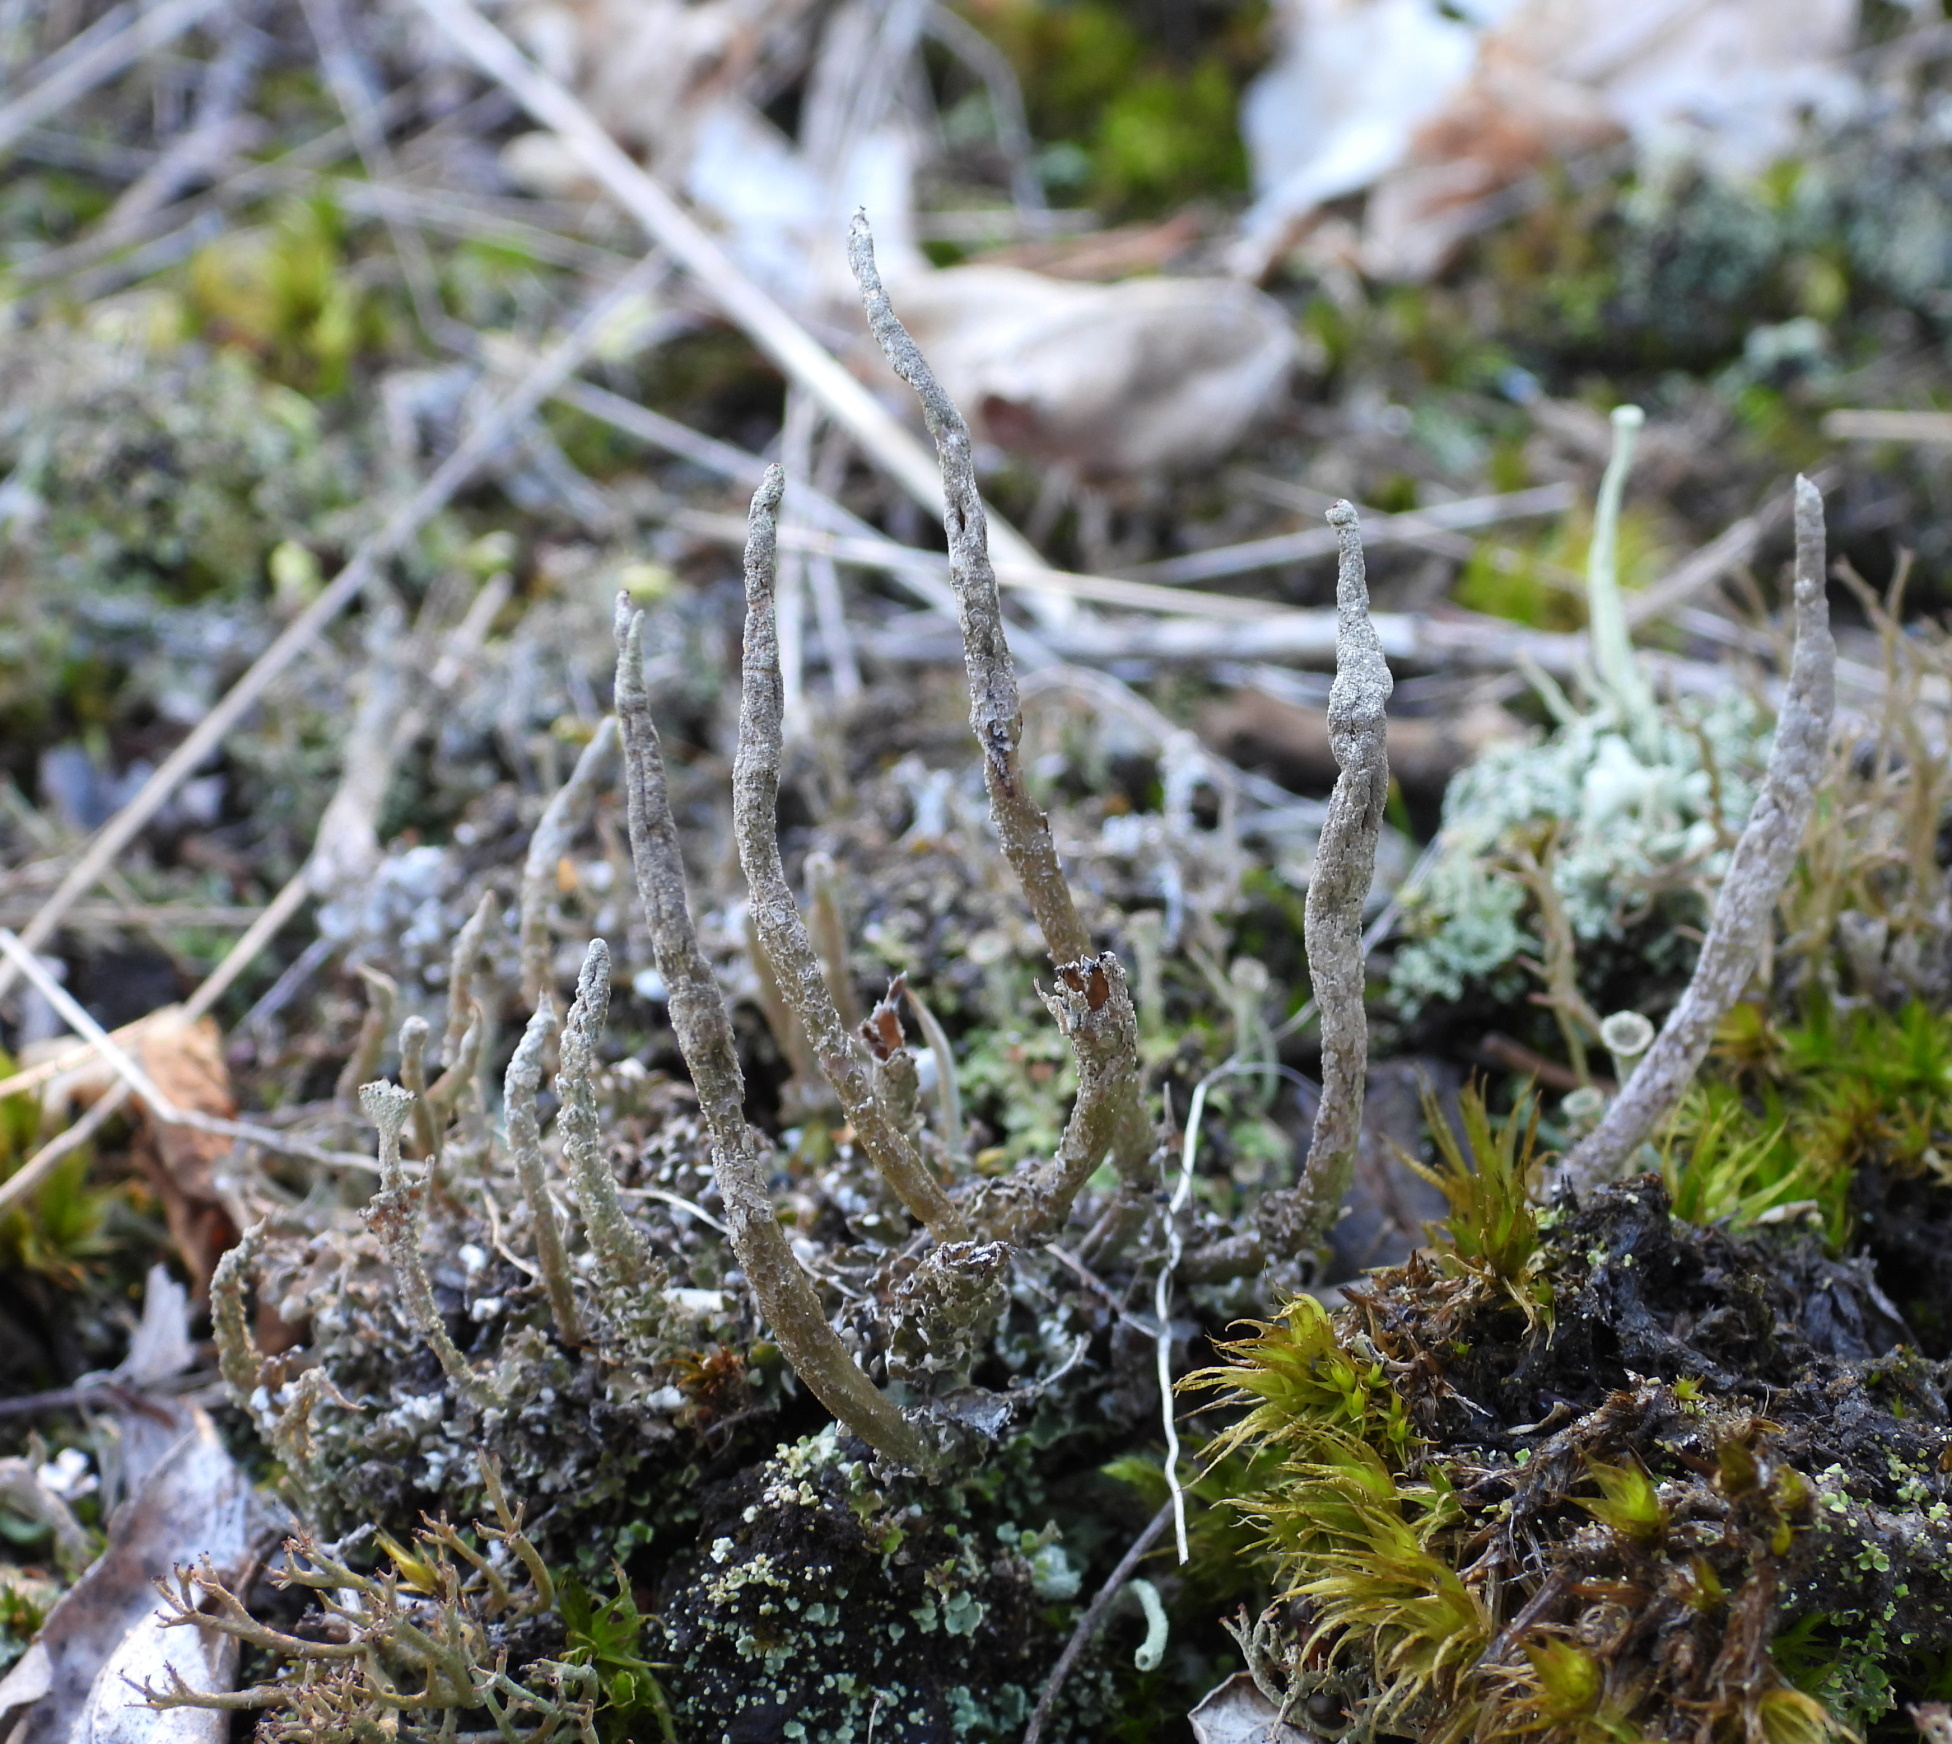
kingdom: Fungi
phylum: Ascomycota
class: Lecanoromycetes
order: Lecanorales
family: Cladoniaceae
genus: Cladonia
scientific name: Cladonia cornuta
